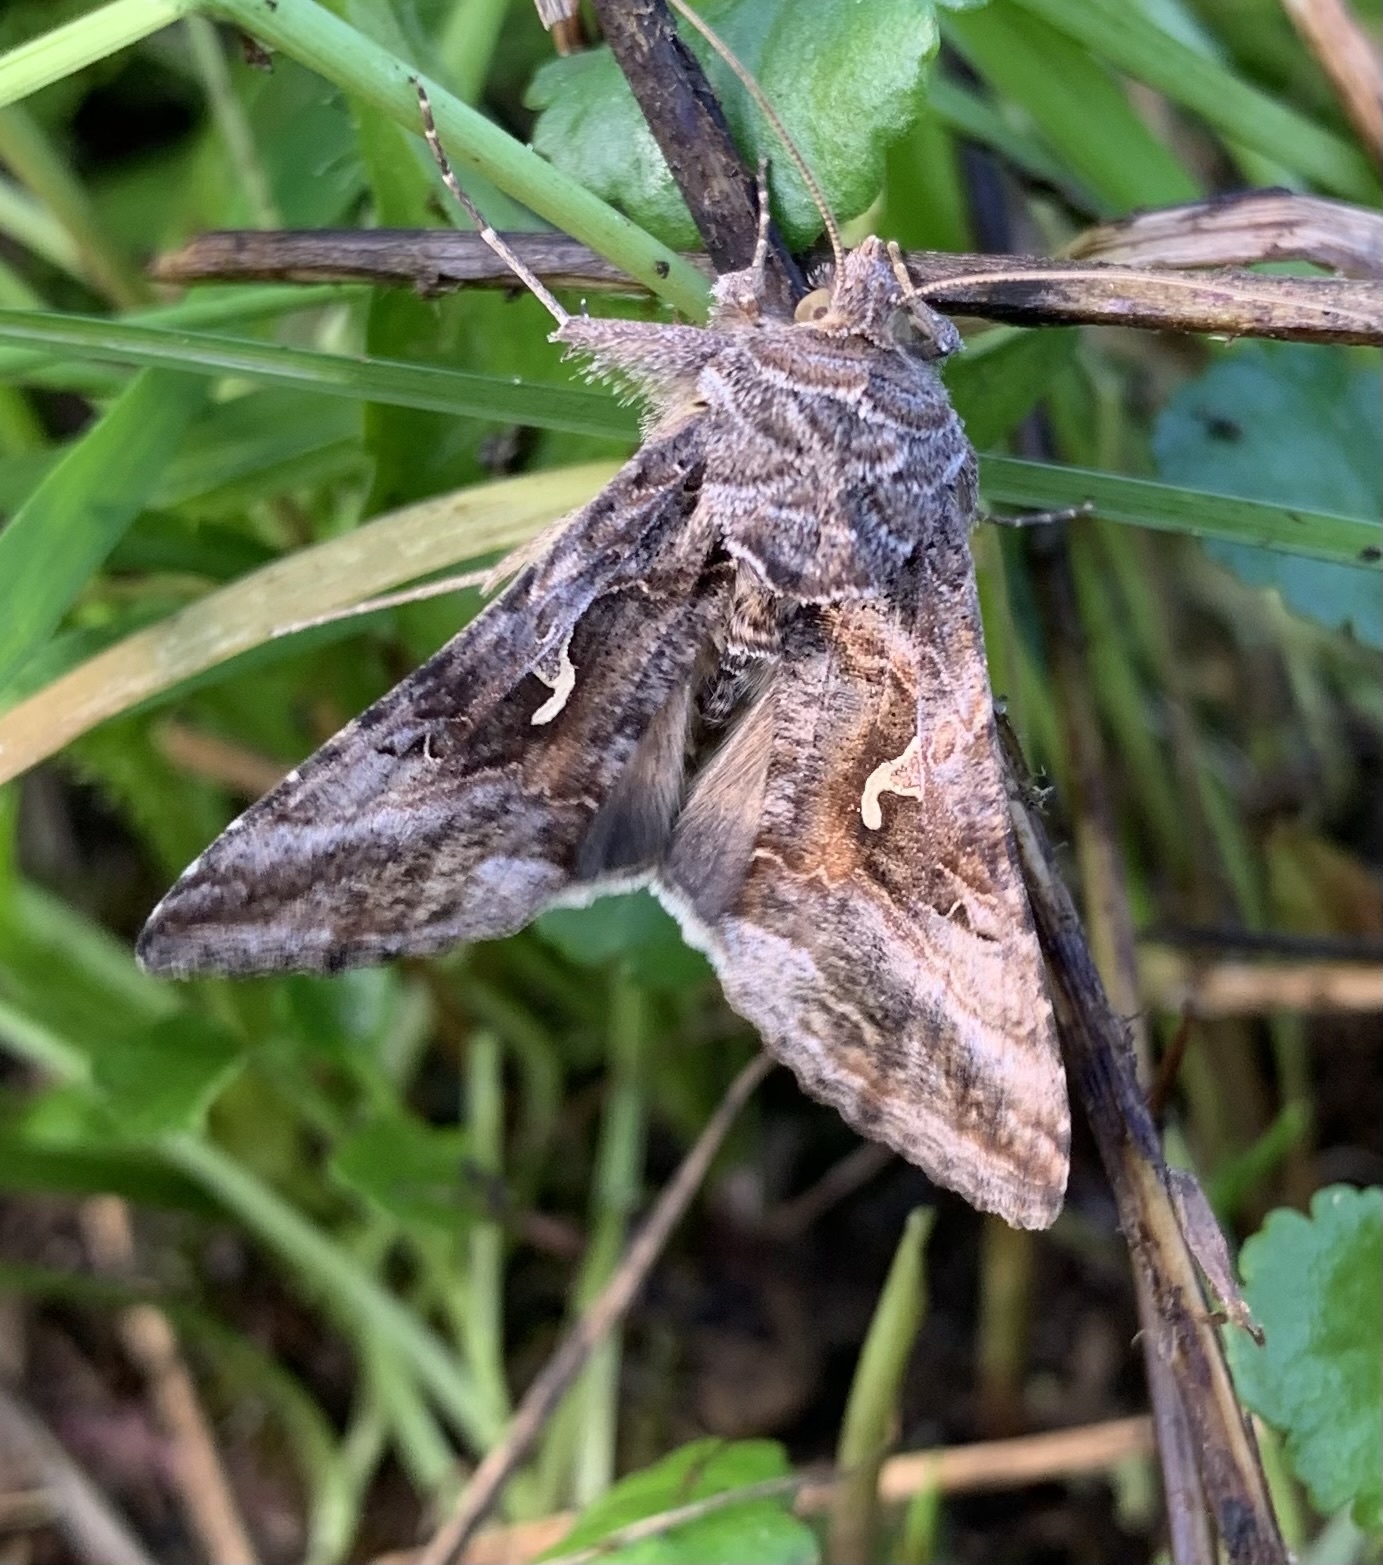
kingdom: Animalia
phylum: Arthropoda
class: Insecta
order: Lepidoptera
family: Noctuidae
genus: Autographa
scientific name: Autographa gamma
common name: Silver y
